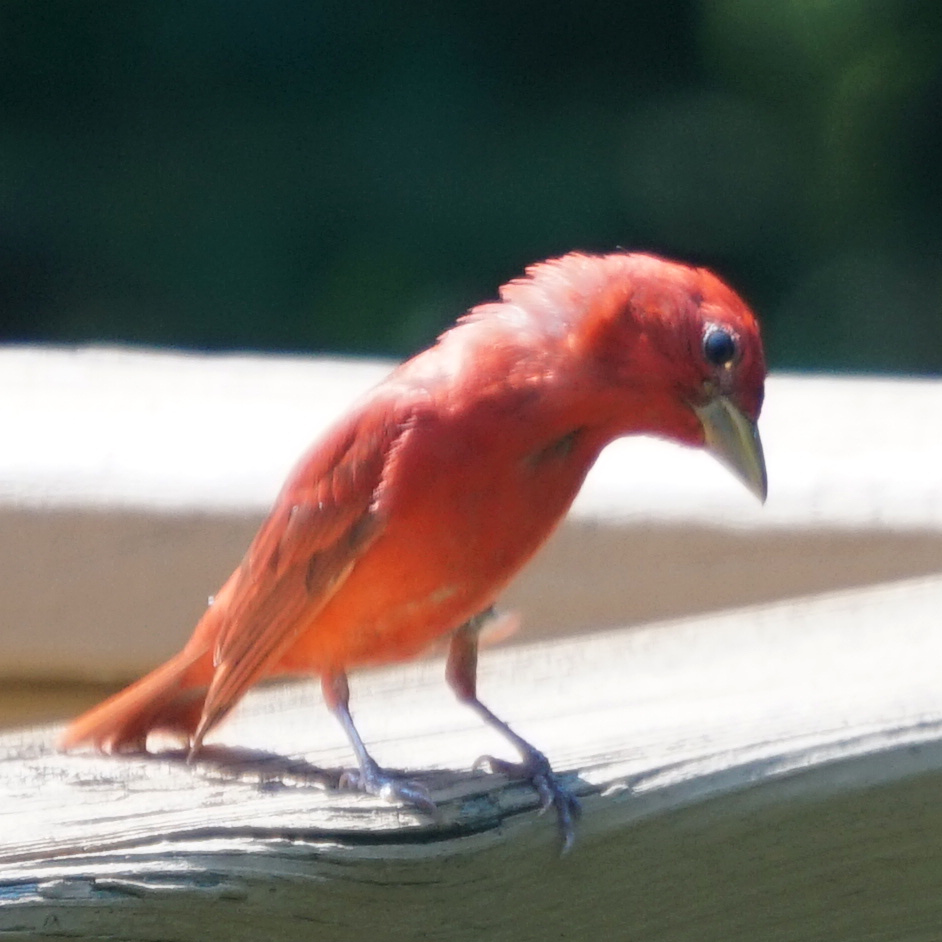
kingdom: Animalia
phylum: Chordata
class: Aves
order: Passeriformes
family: Cardinalidae
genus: Piranga
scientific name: Piranga rubra
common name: Summer tanager
